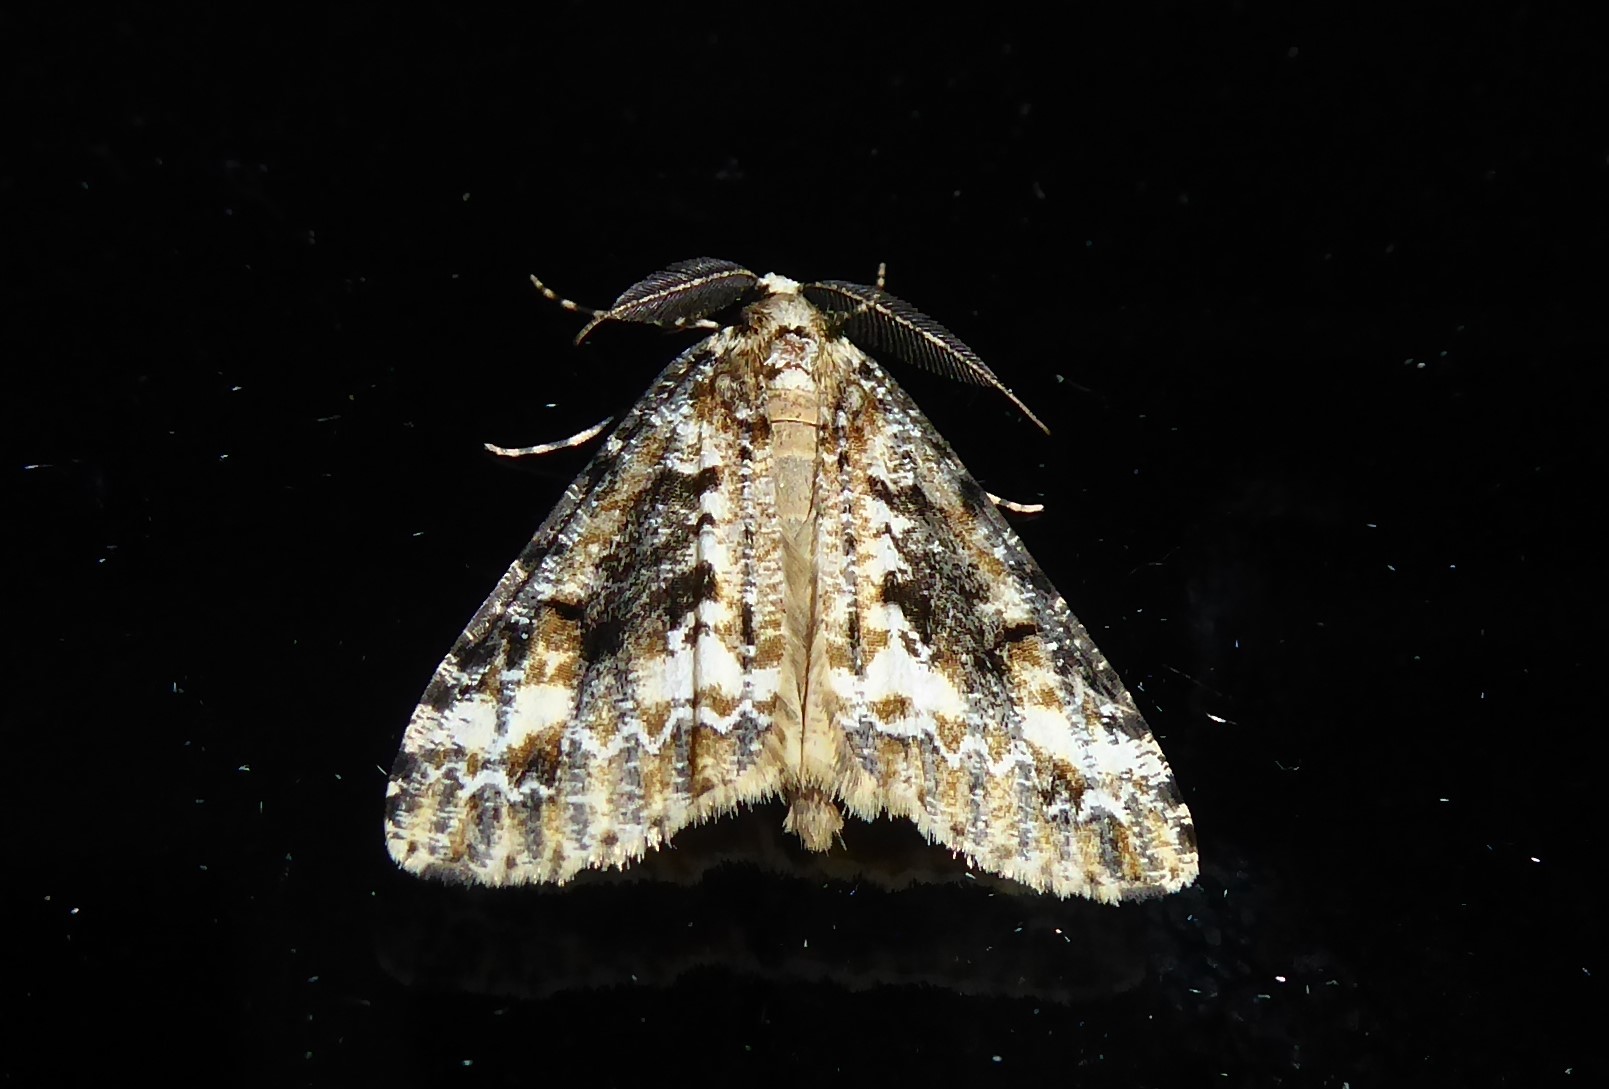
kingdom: Animalia
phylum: Arthropoda
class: Insecta
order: Lepidoptera
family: Geometridae
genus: Pseudocoremia
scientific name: Pseudocoremia leucelaea
